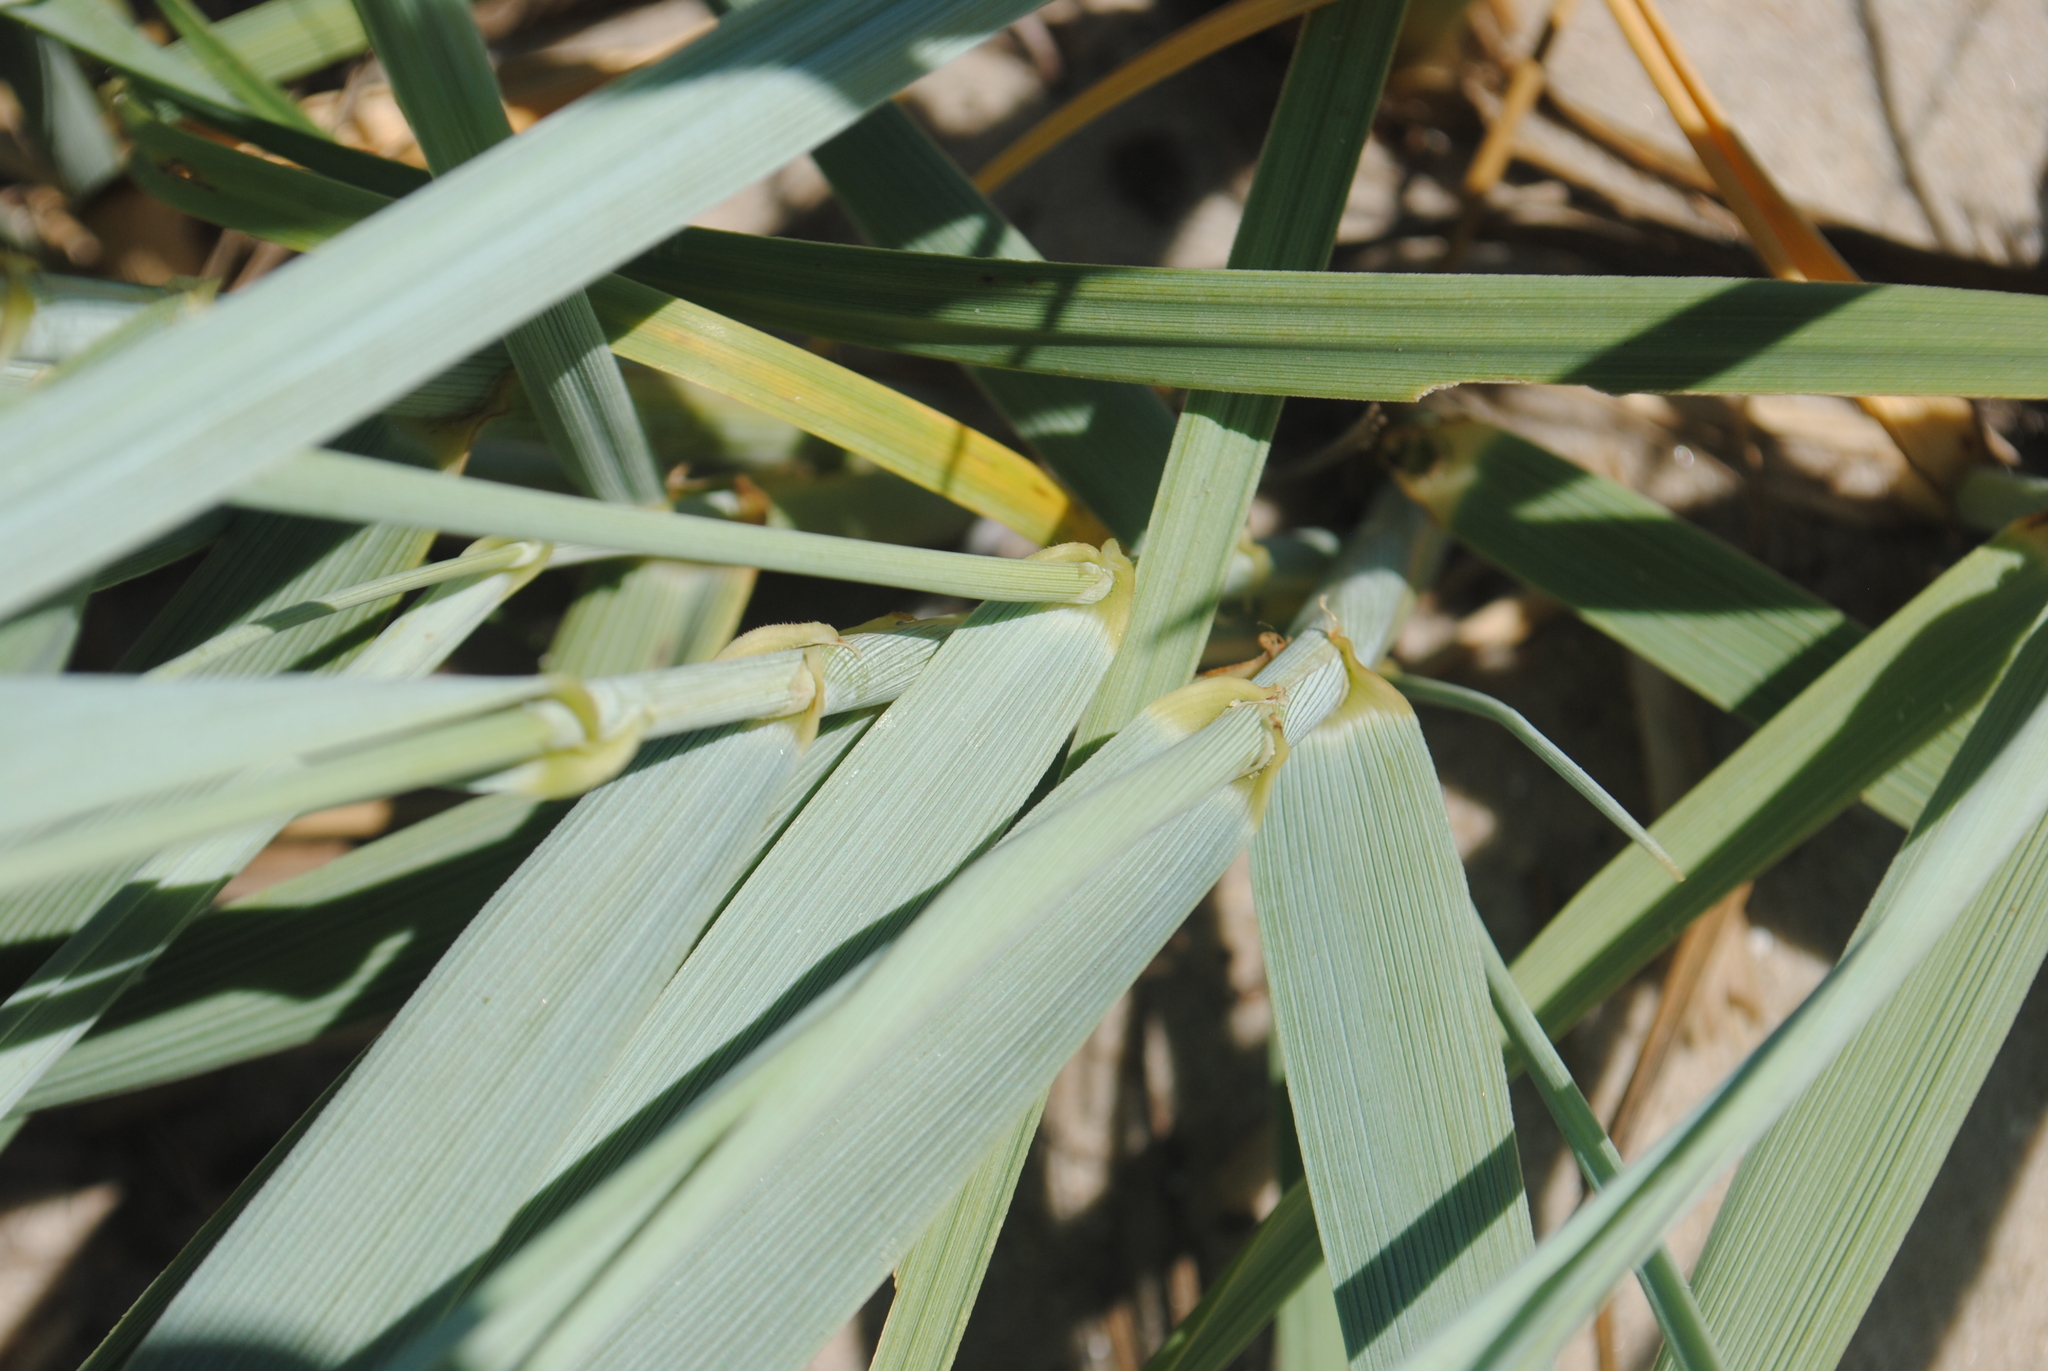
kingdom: Plantae
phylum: Tracheophyta
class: Liliopsida
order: Poales
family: Poaceae
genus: Leymus
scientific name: Leymus arenarius
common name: Lyme-grass
